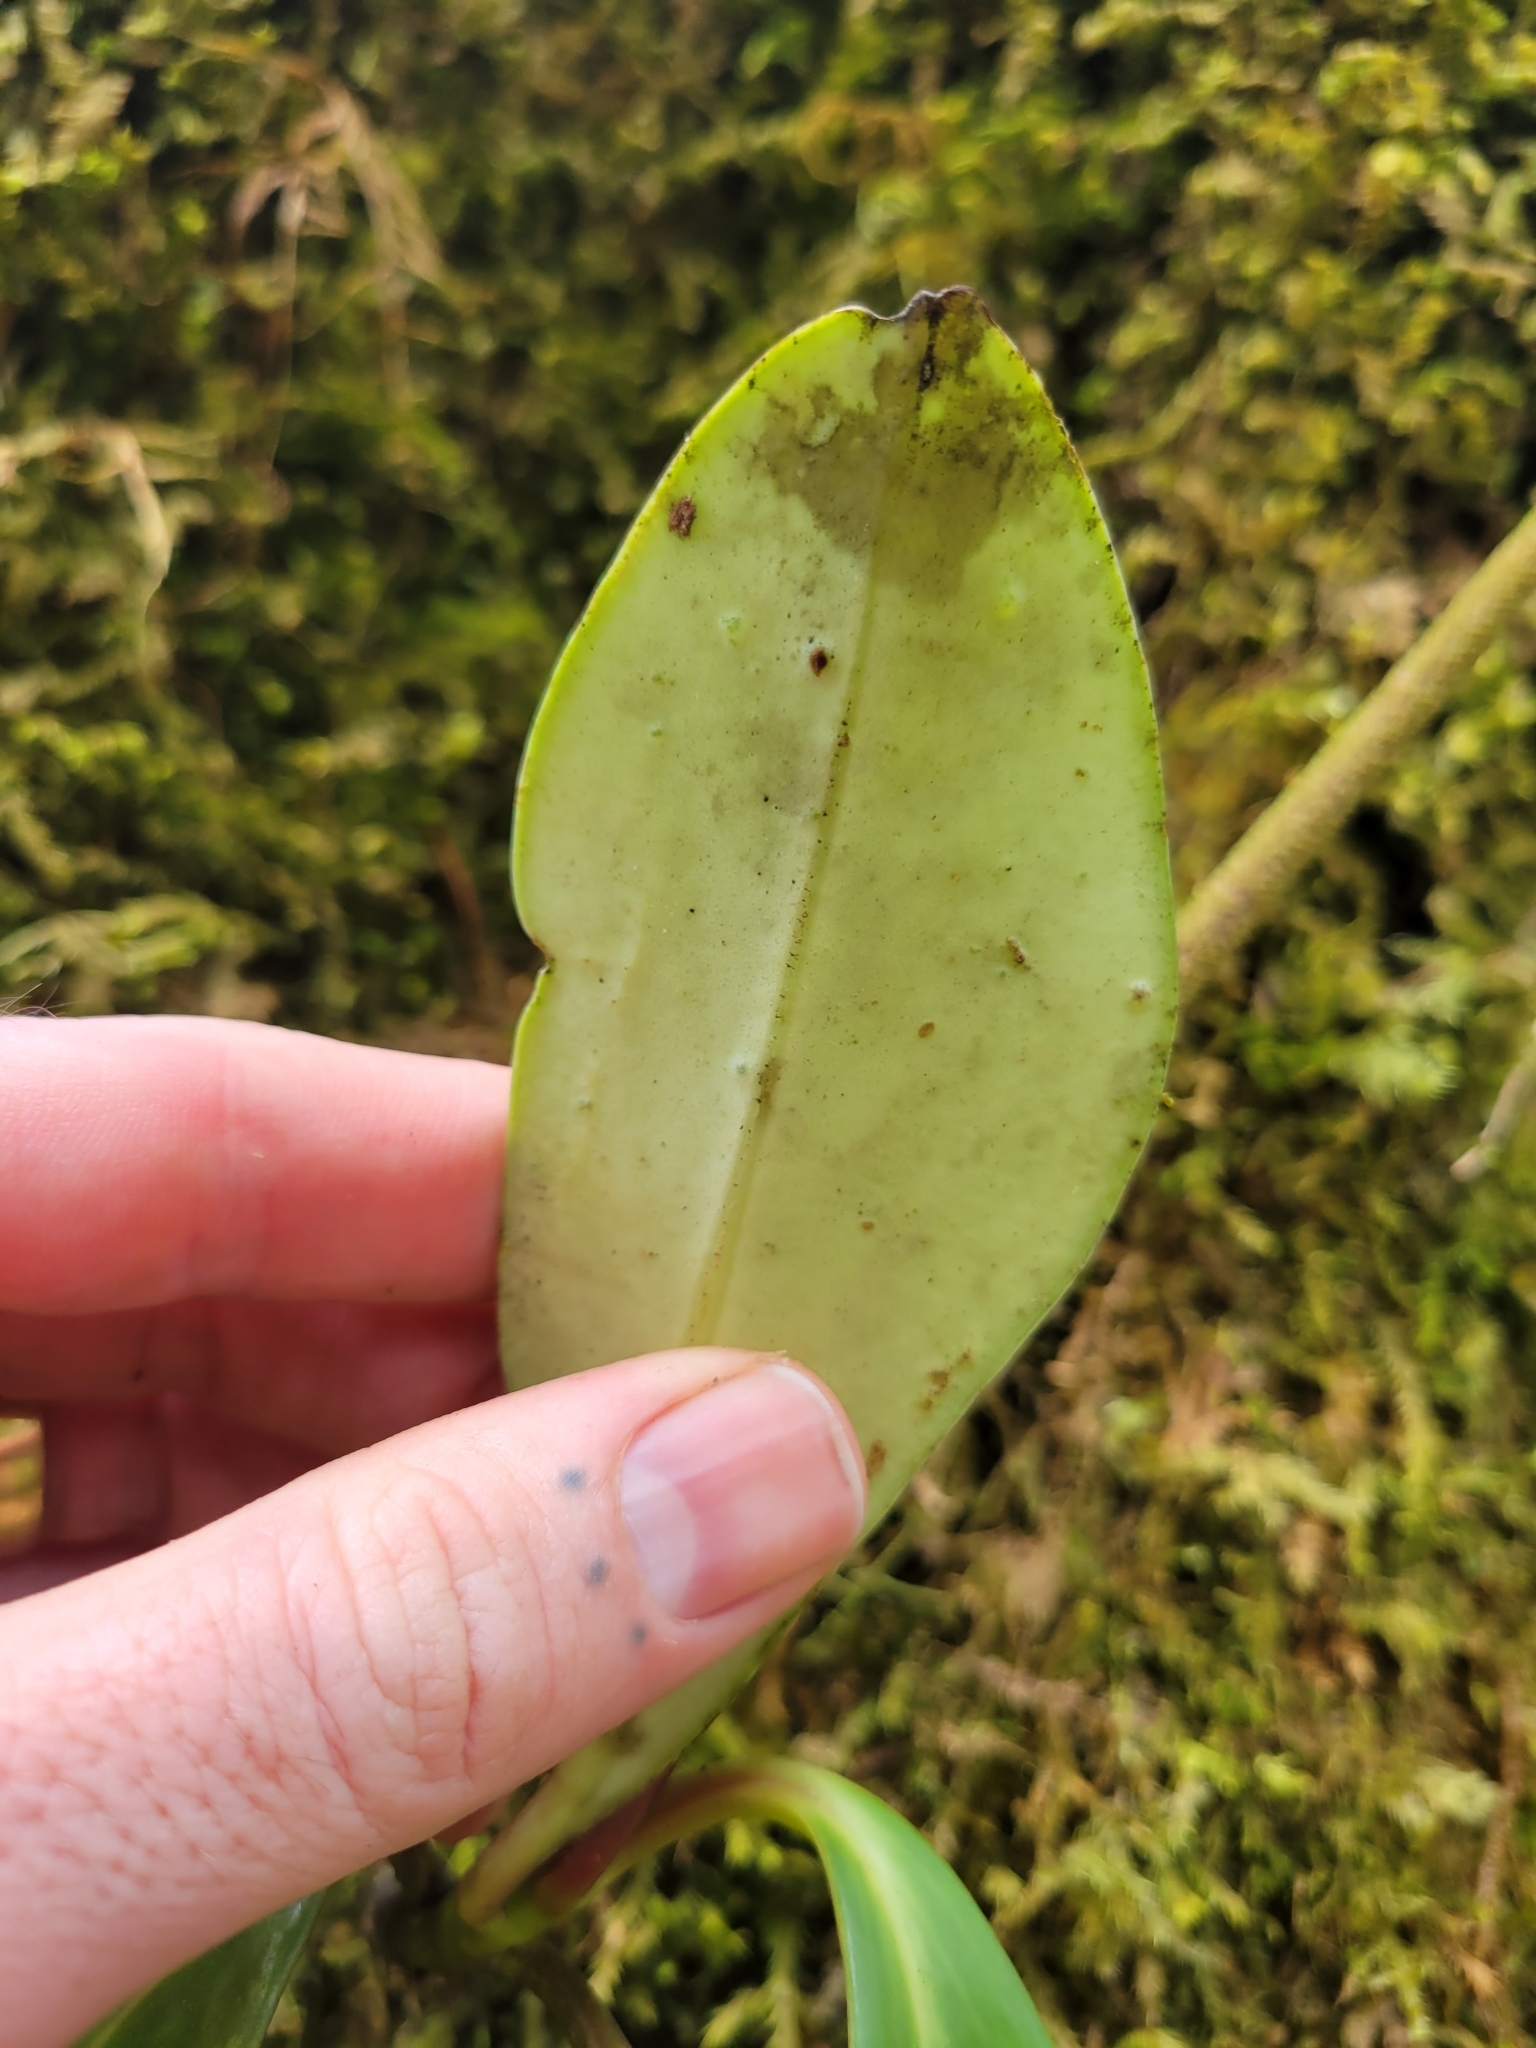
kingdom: Plantae
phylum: Tracheophyta
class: Magnoliopsida
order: Piperales
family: Piperaceae
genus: Peperomia
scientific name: Peperomia adscendens
